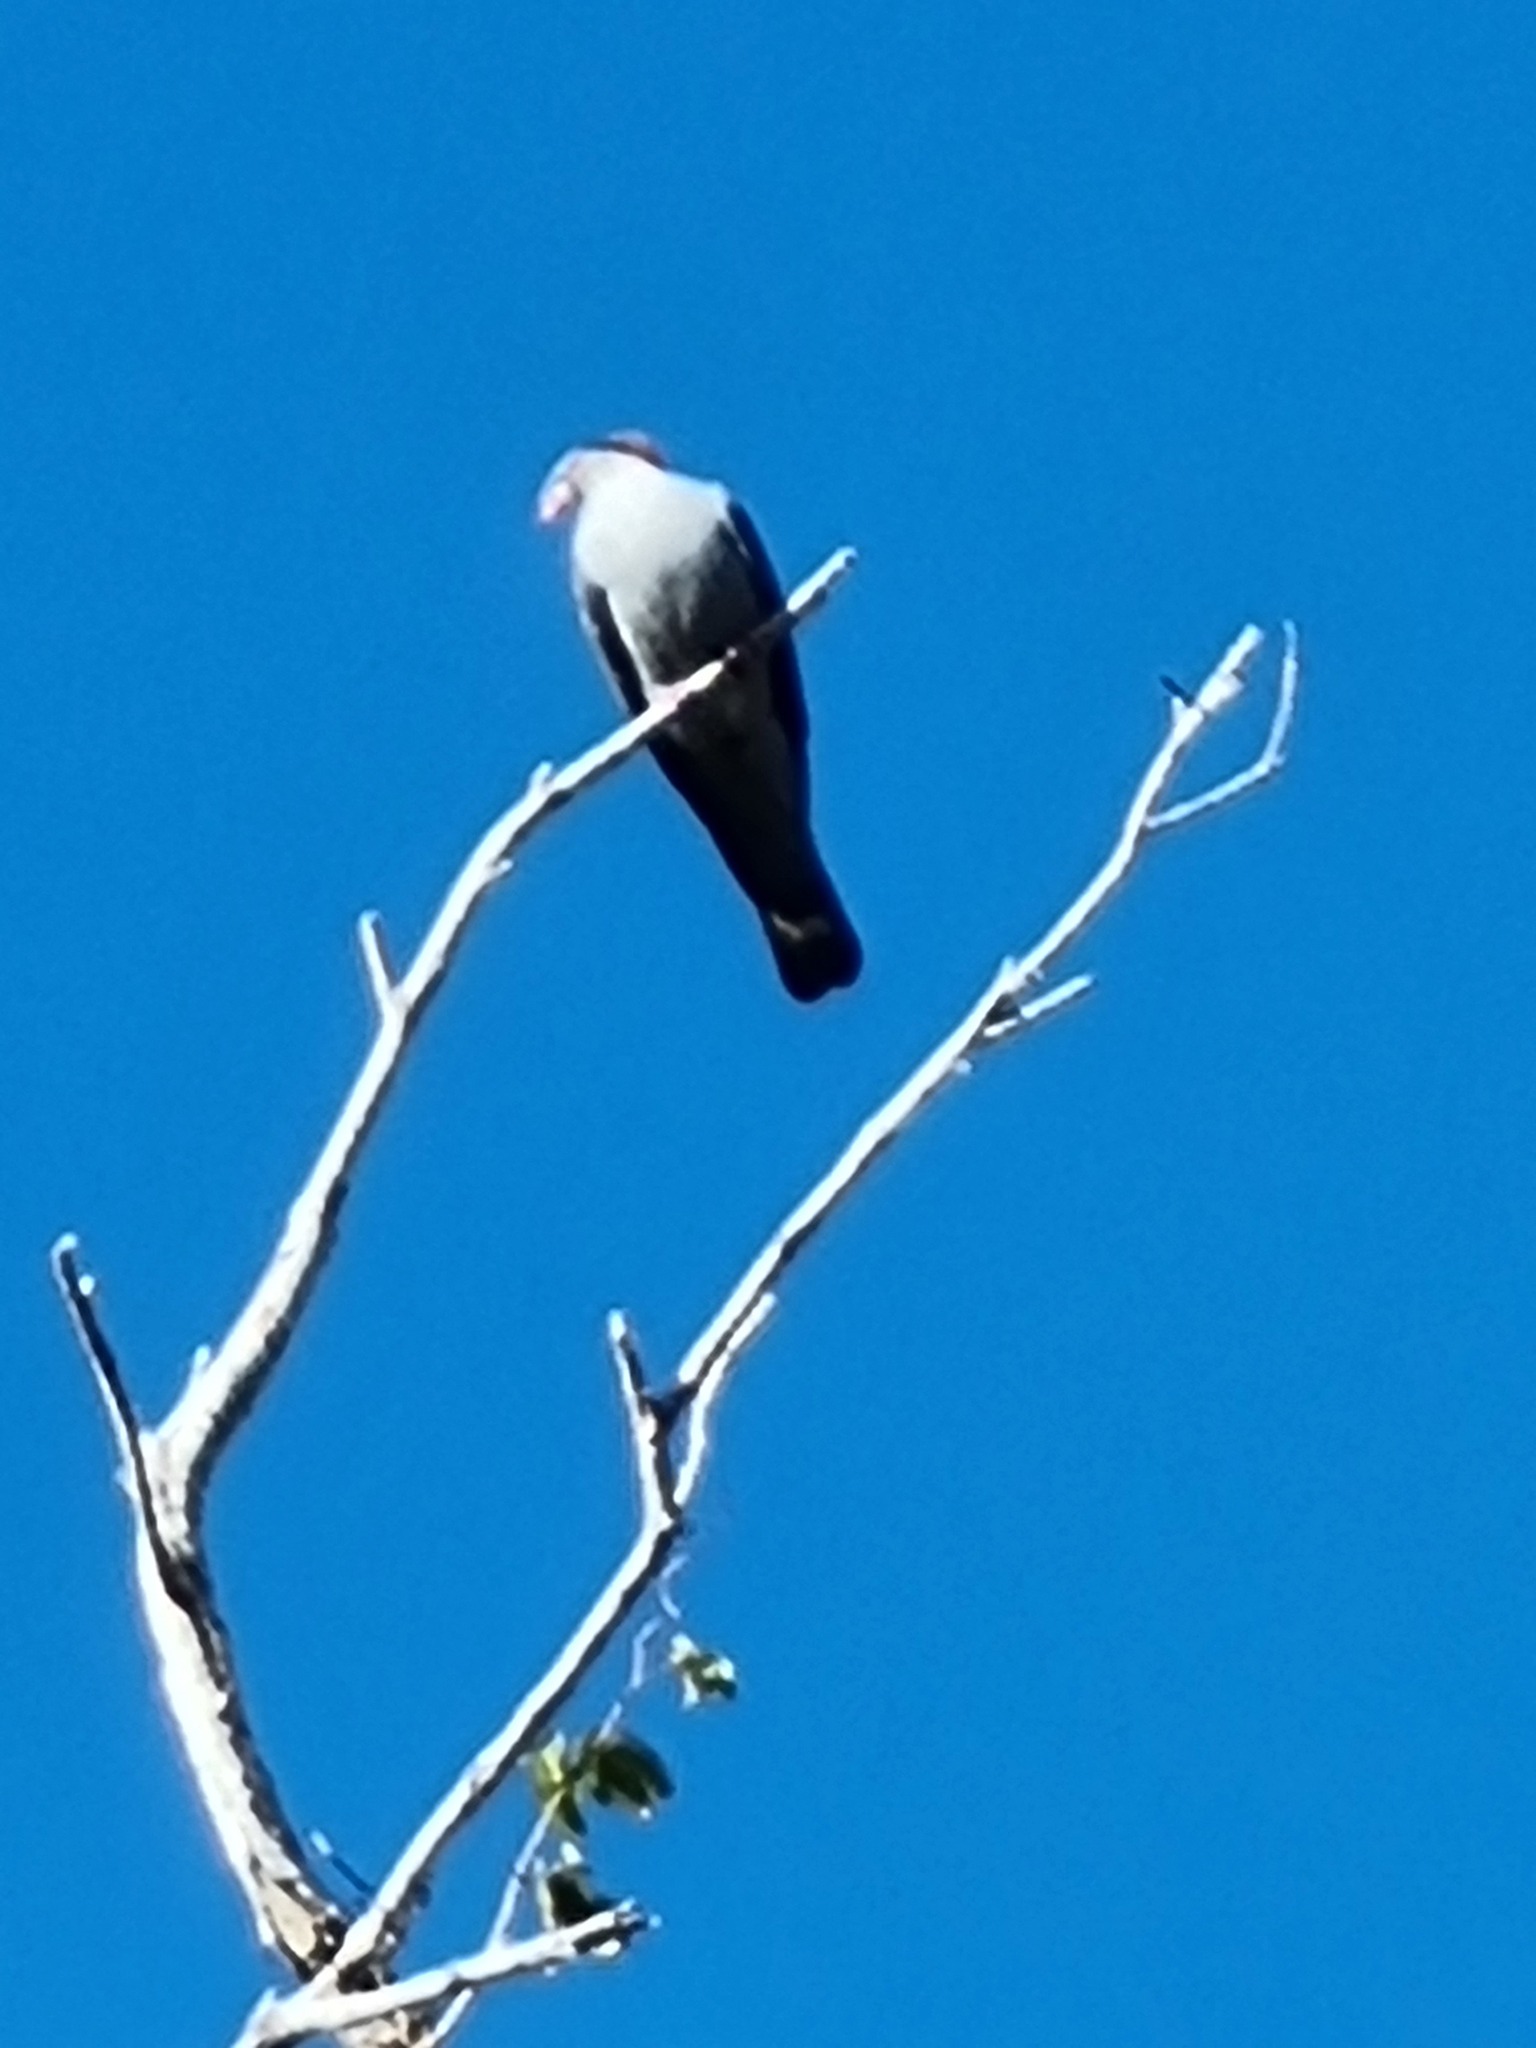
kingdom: Animalia
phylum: Chordata
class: Aves
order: Columbiformes
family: Columbidae
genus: Lopholaimus
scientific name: Lopholaimus antarcticus
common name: Topknot pigeon
